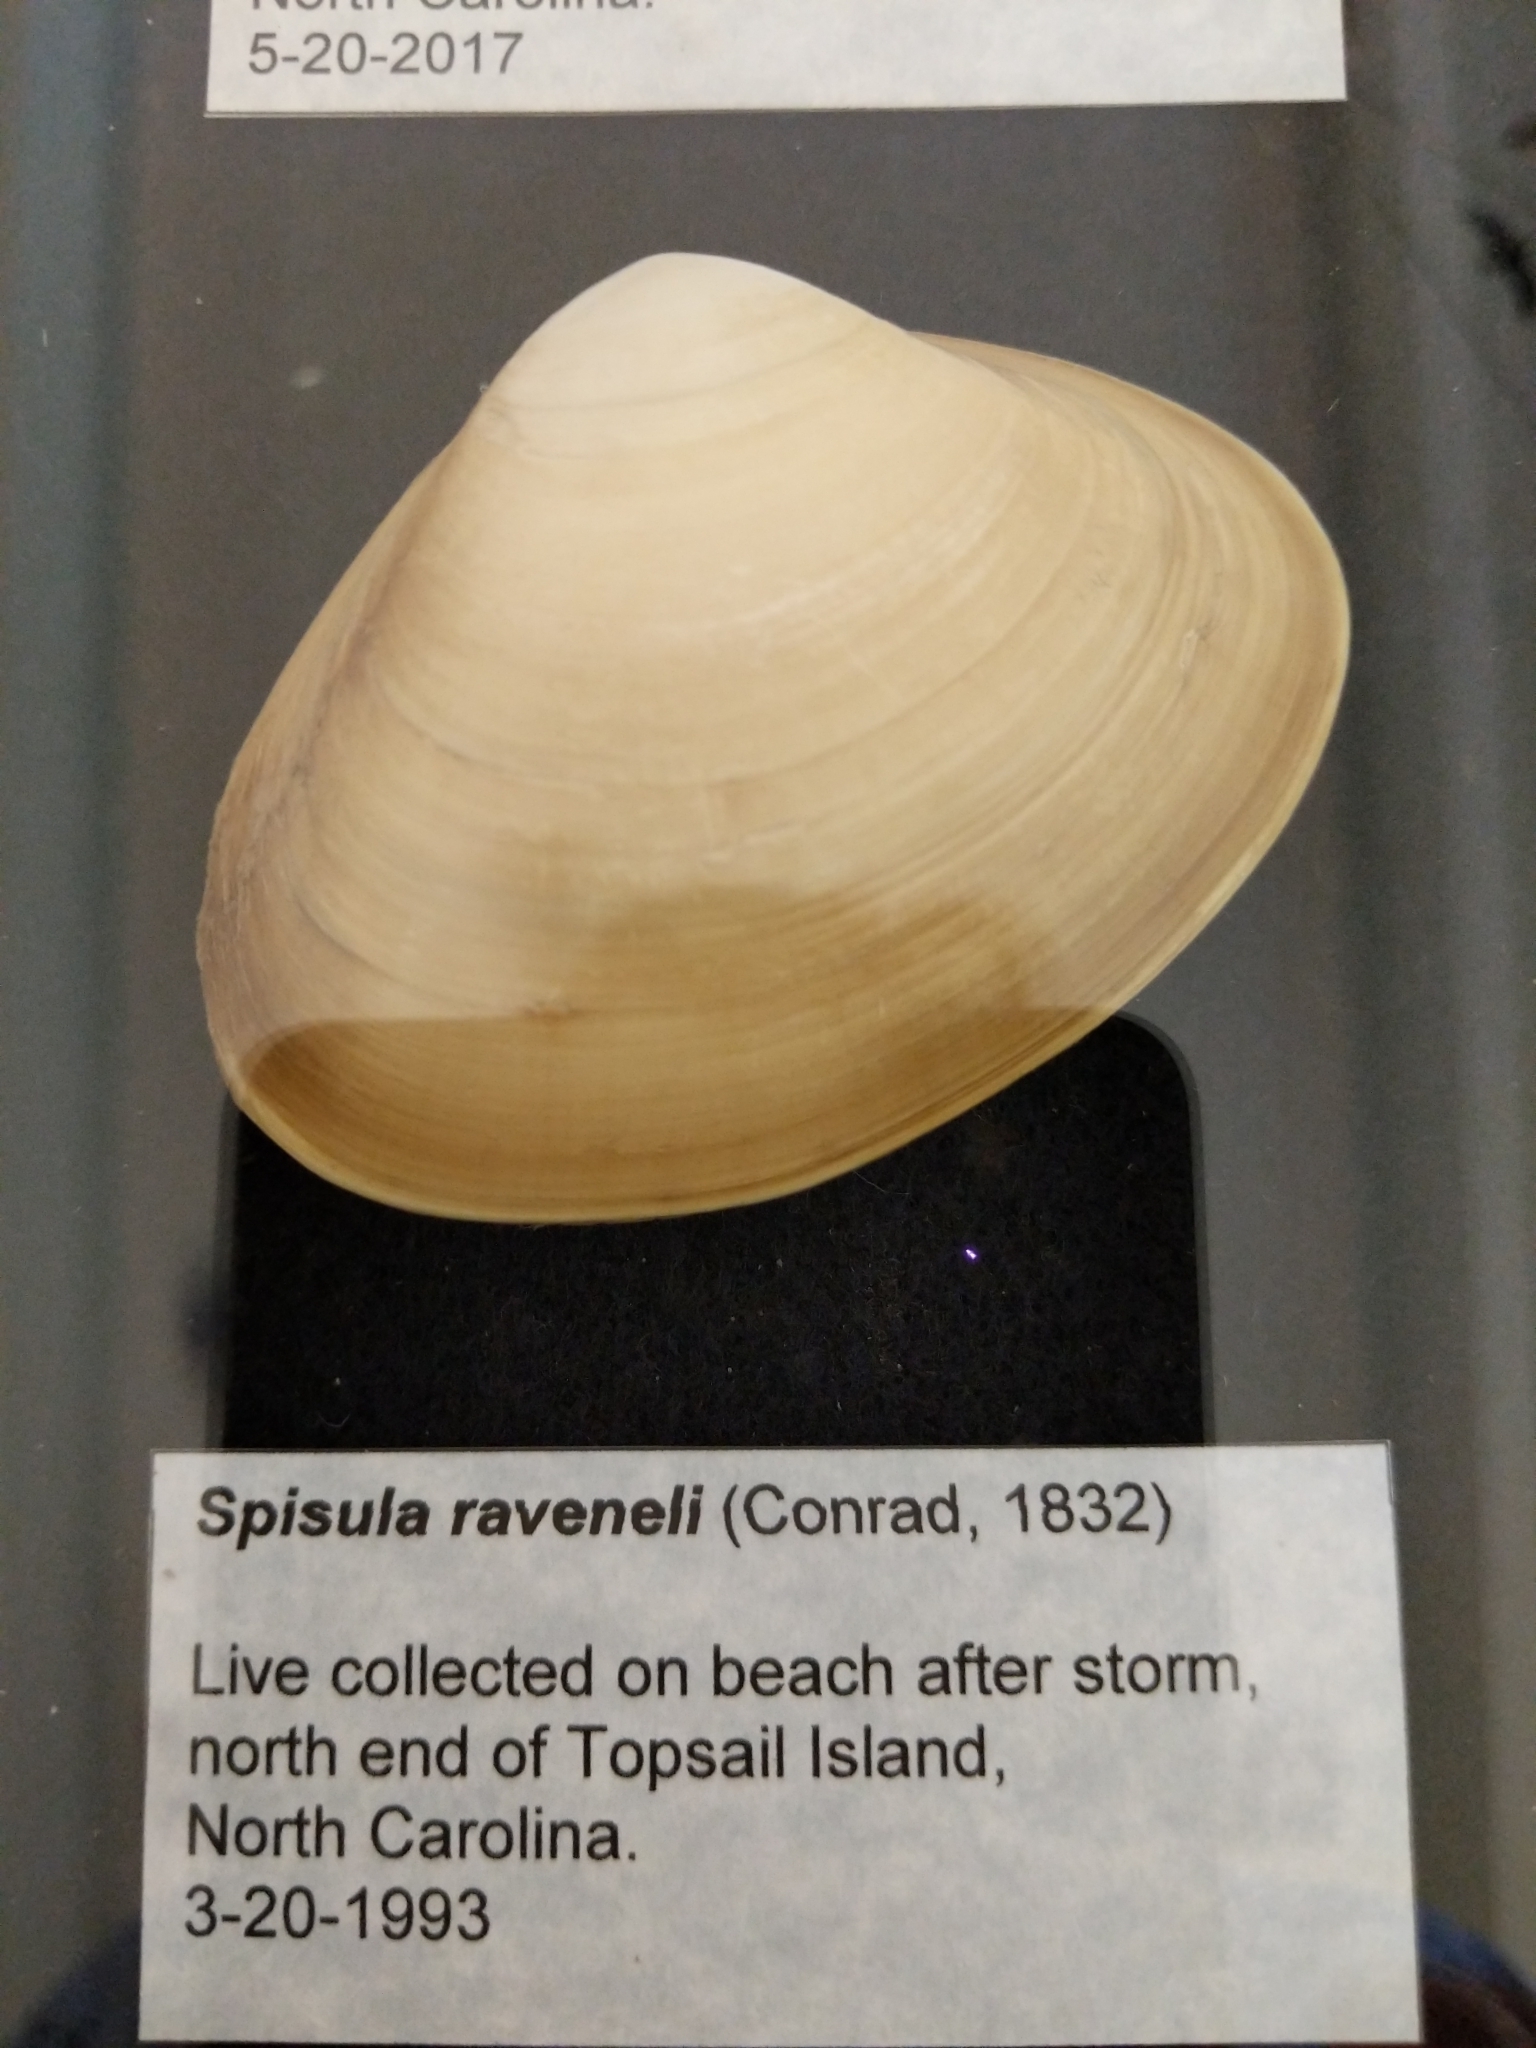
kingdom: Animalia
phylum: Mollusca
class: Bivalvia
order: Venerida
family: Mactridae
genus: Spisula
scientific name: Spisula raveneli
